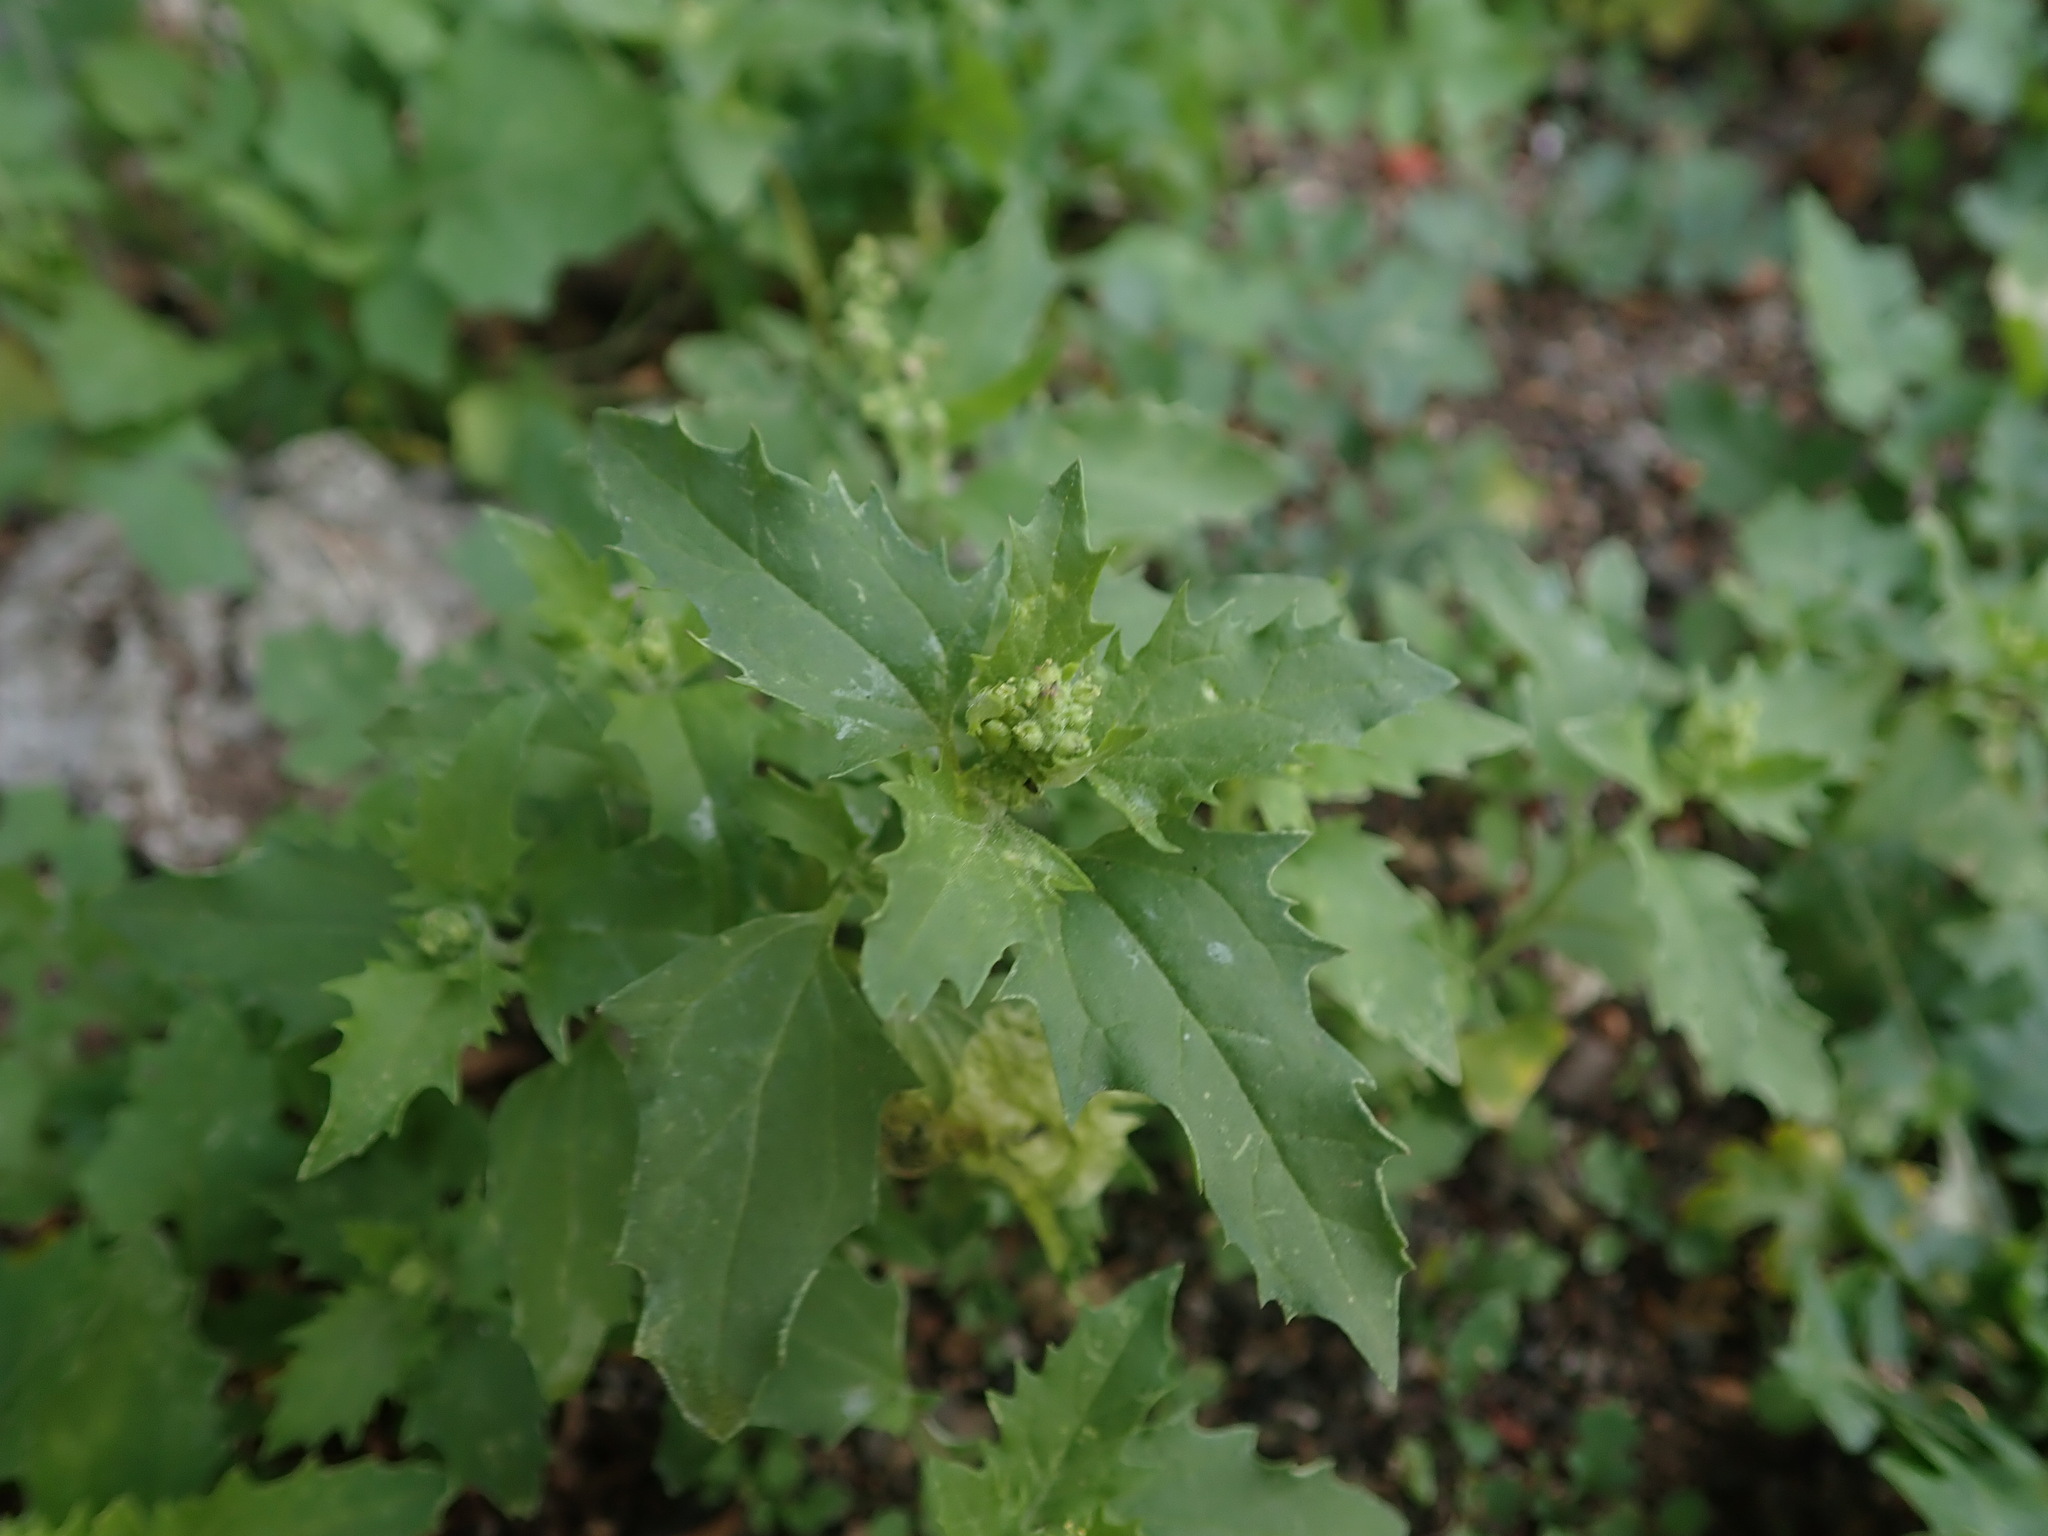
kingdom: Plantae
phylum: Tracheophyta
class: Magnoliopsida
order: Caryophyllales
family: Amaranthaceae
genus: Chenopodiastrum
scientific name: Chenopodiastrum murale
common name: Sowbane
